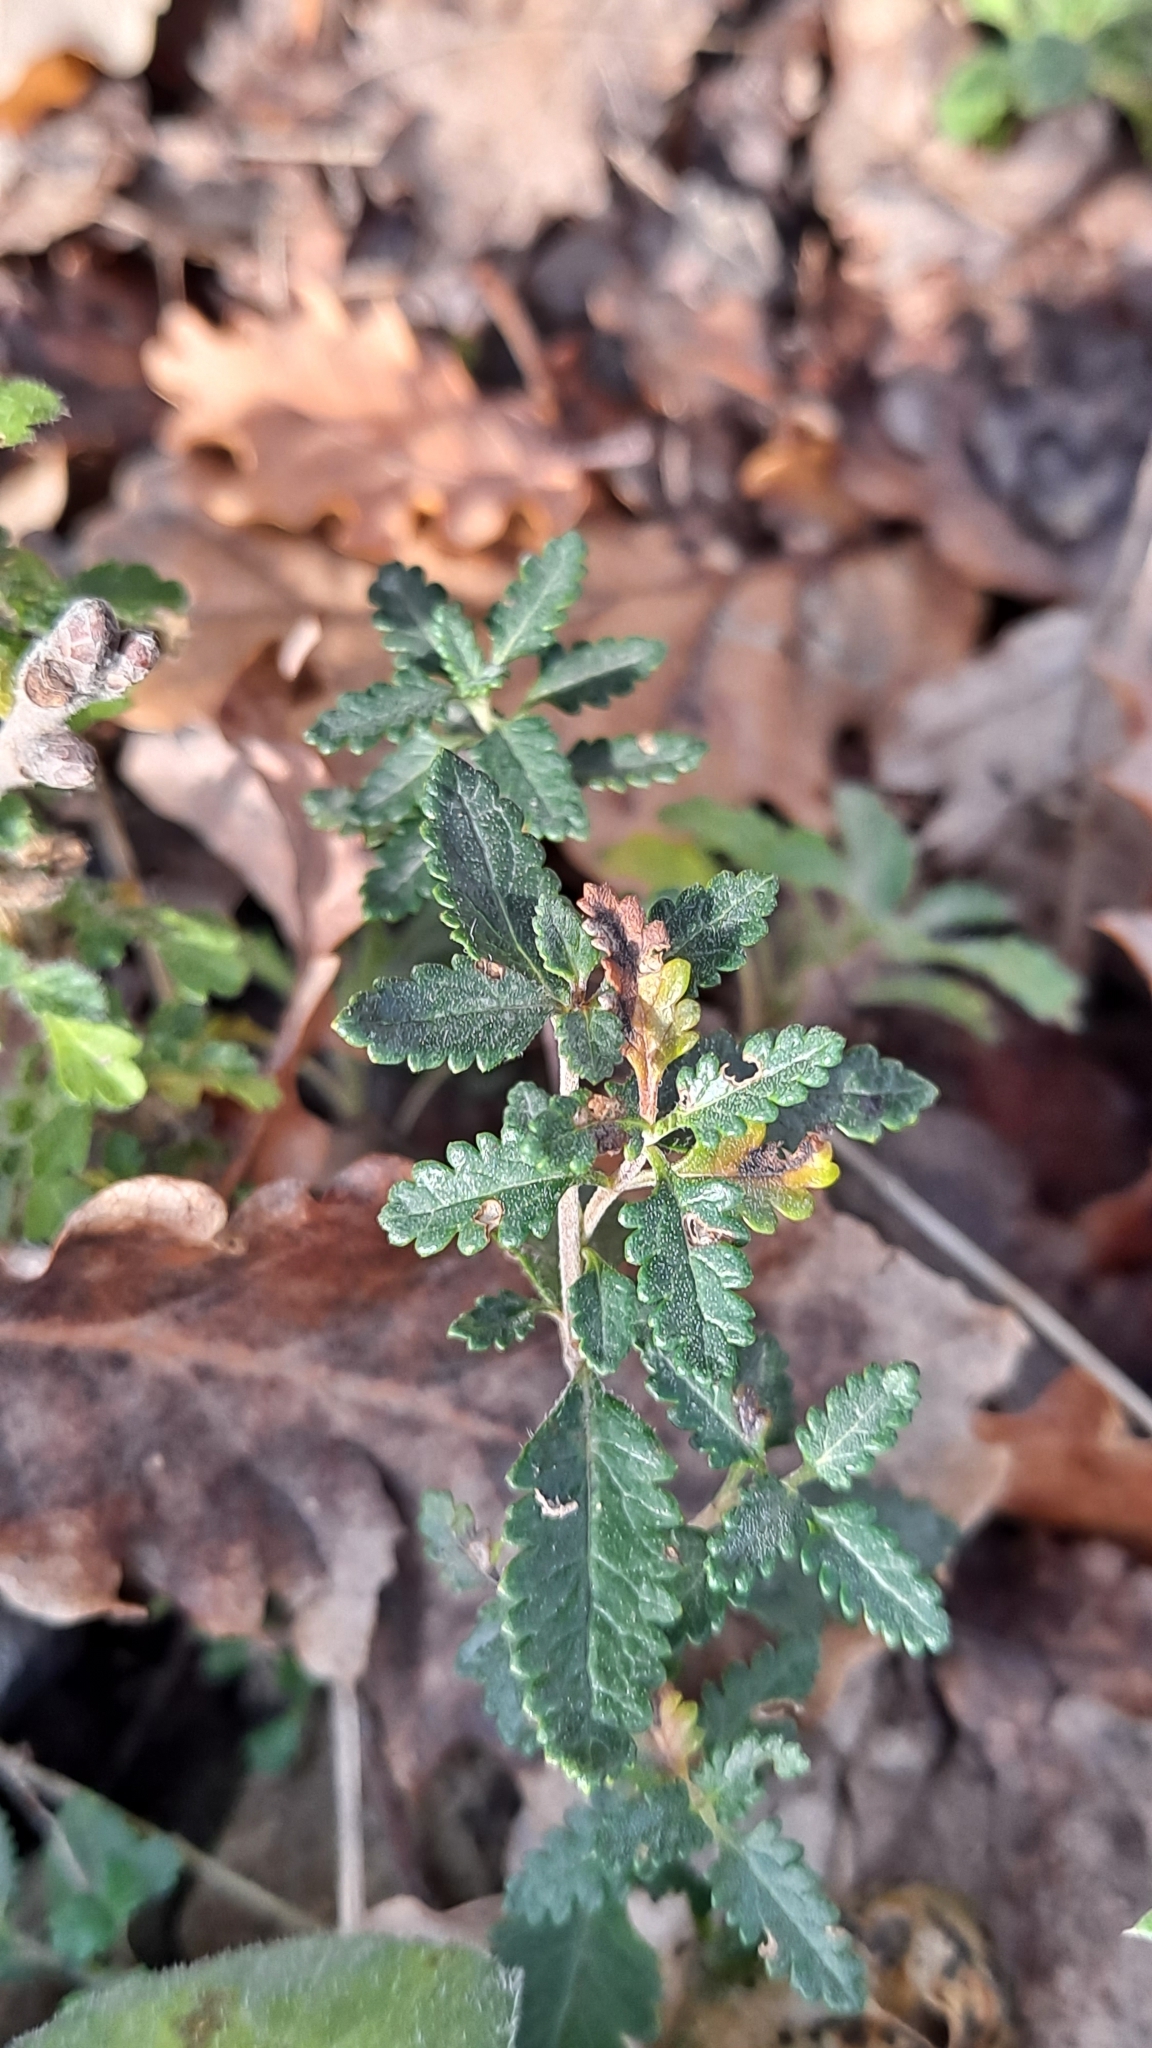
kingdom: Plantae
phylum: Tracheophyta
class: Magnoliopsida
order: Lamiales
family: Lamiaceae
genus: Teucrium
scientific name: Teucrium chamaedrys
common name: Wall germander
